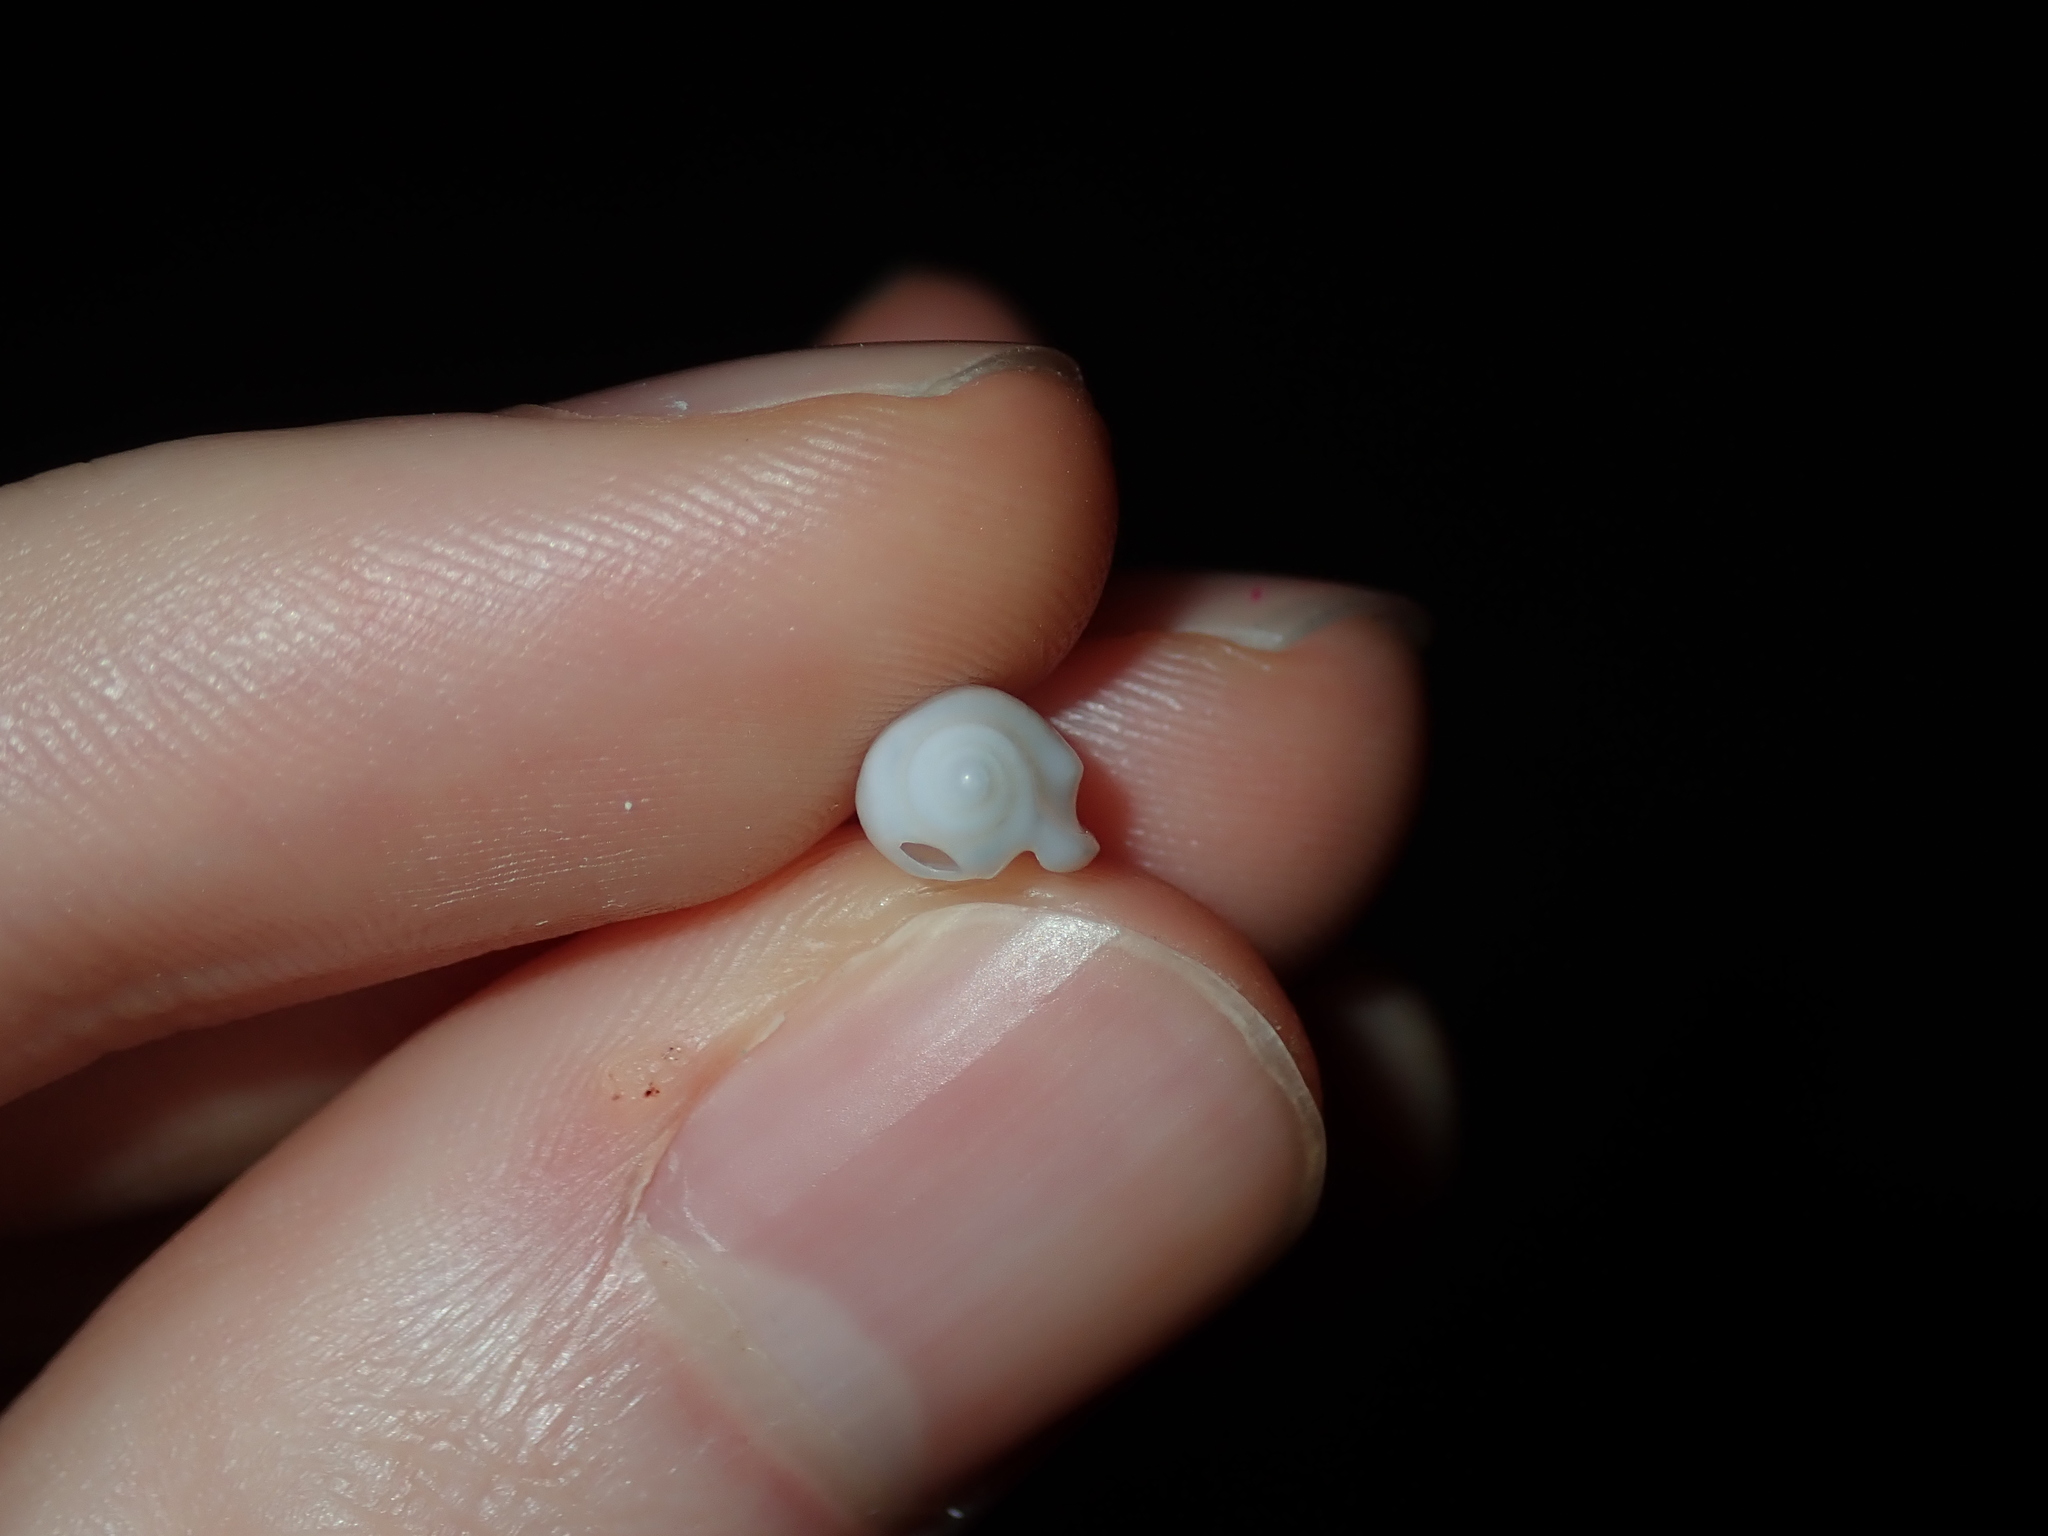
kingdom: Animalia
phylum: Mollusca
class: Gastropoda
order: Neogastropoda
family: Marginellidae
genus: Austroginella
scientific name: Austroginella muscaria
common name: Fly marginella
